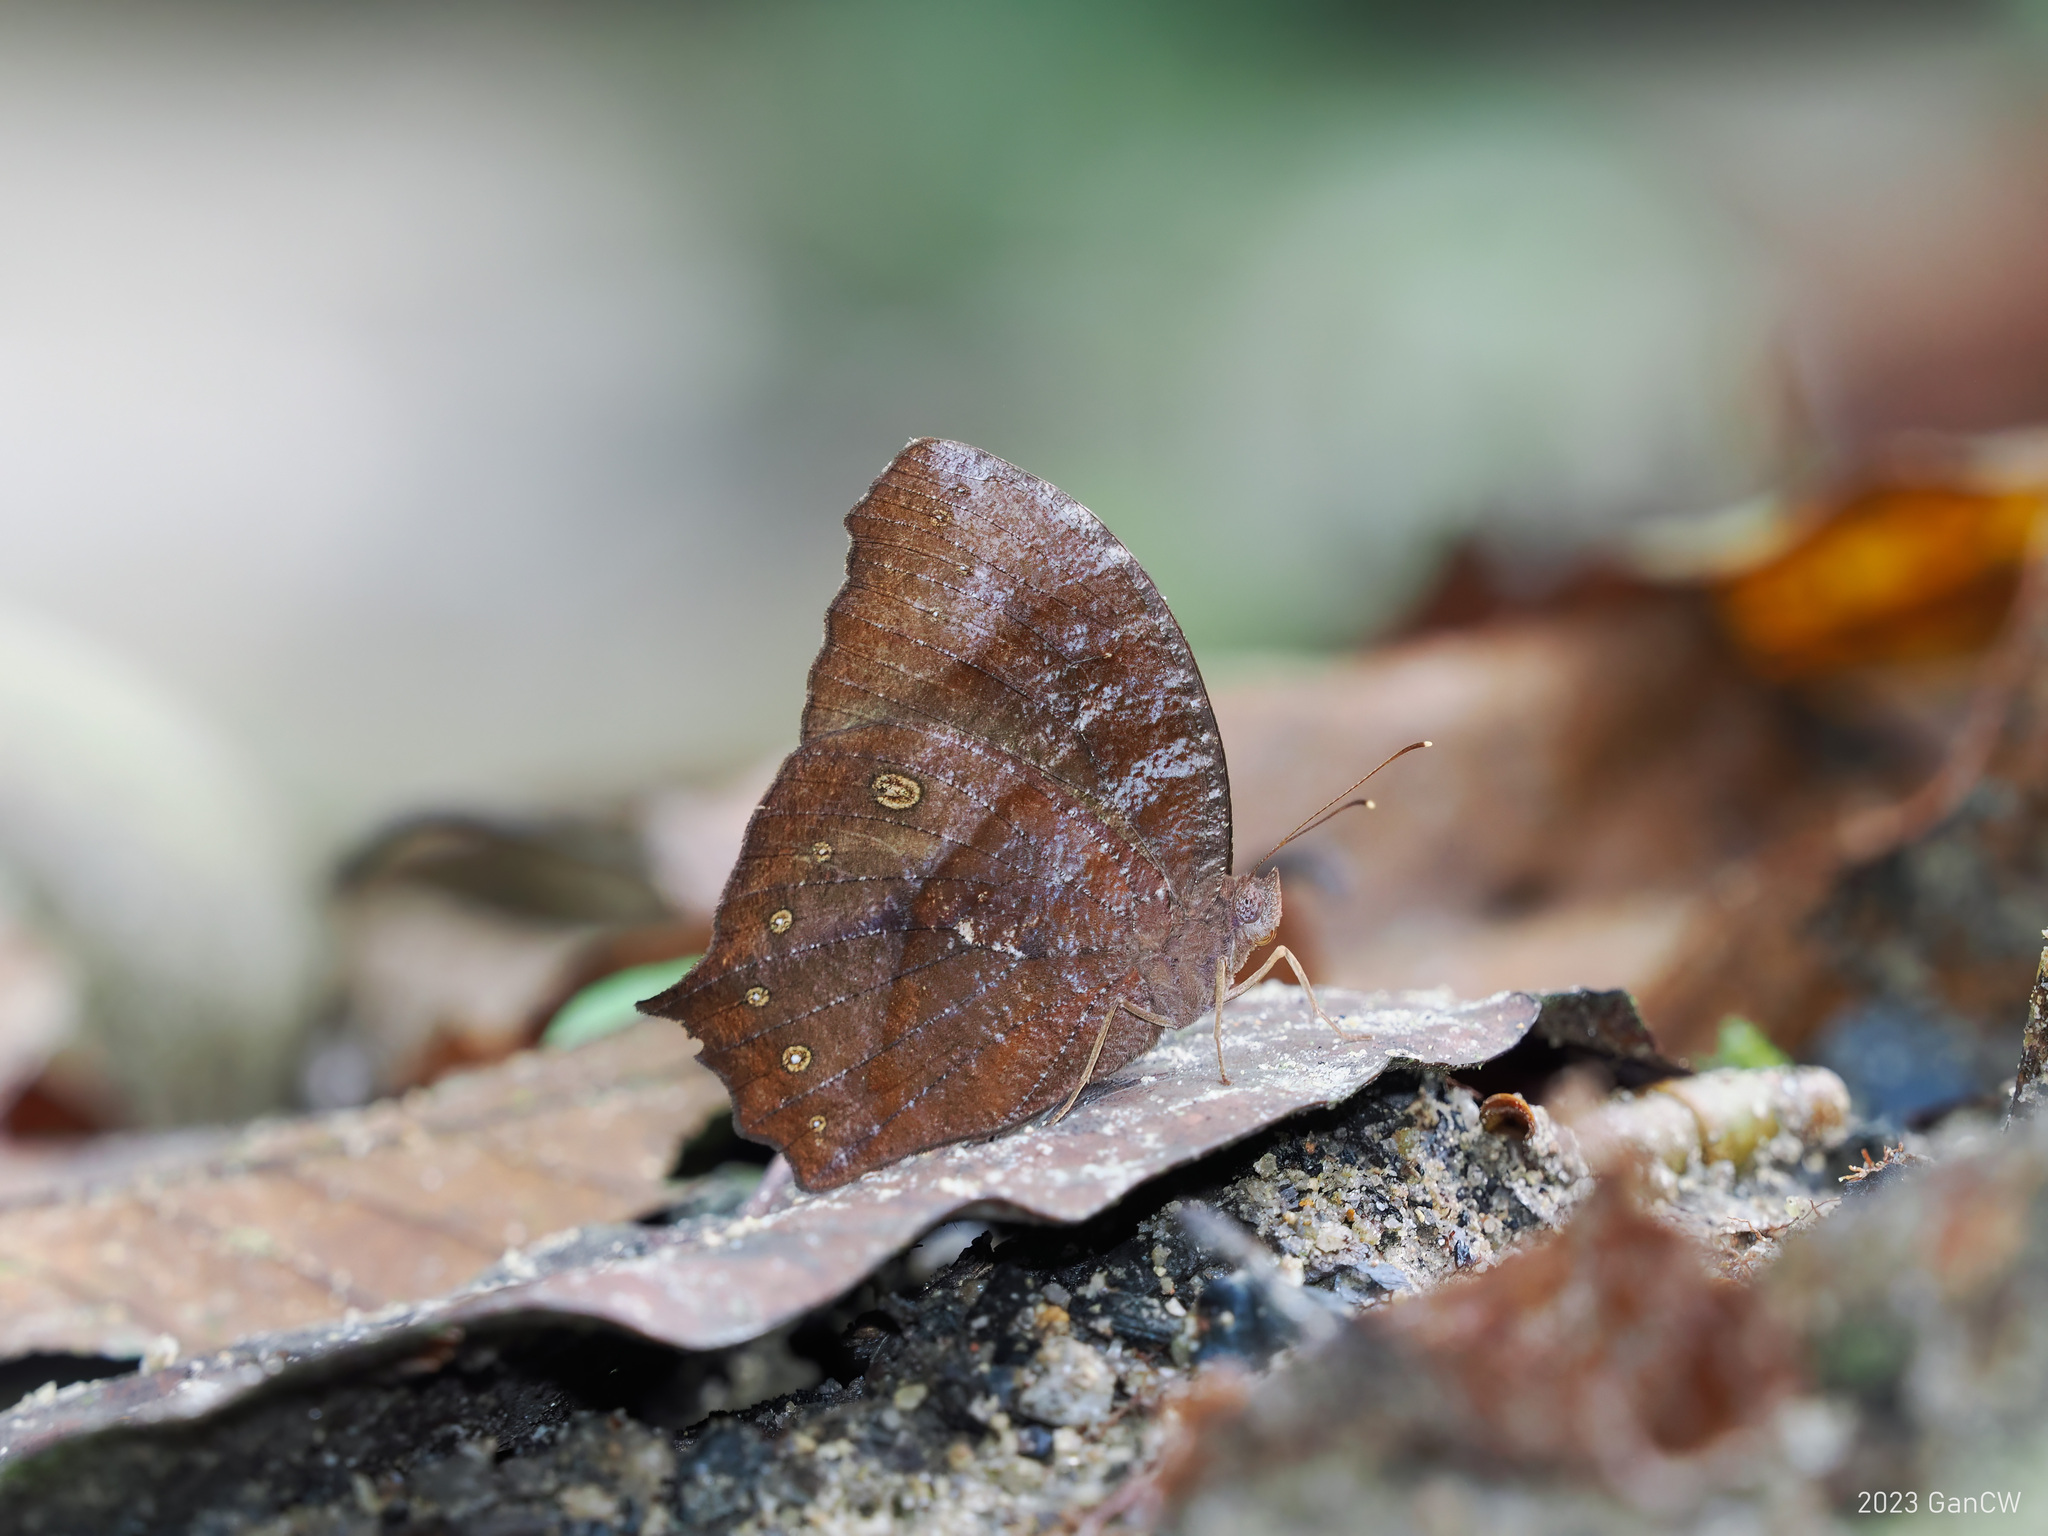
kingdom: Animalia
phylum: Arthropoda
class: Insecta
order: Lepidoptera
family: Nymphalidae
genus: Melanitis
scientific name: Melanitis phedima
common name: Dark evening brown
